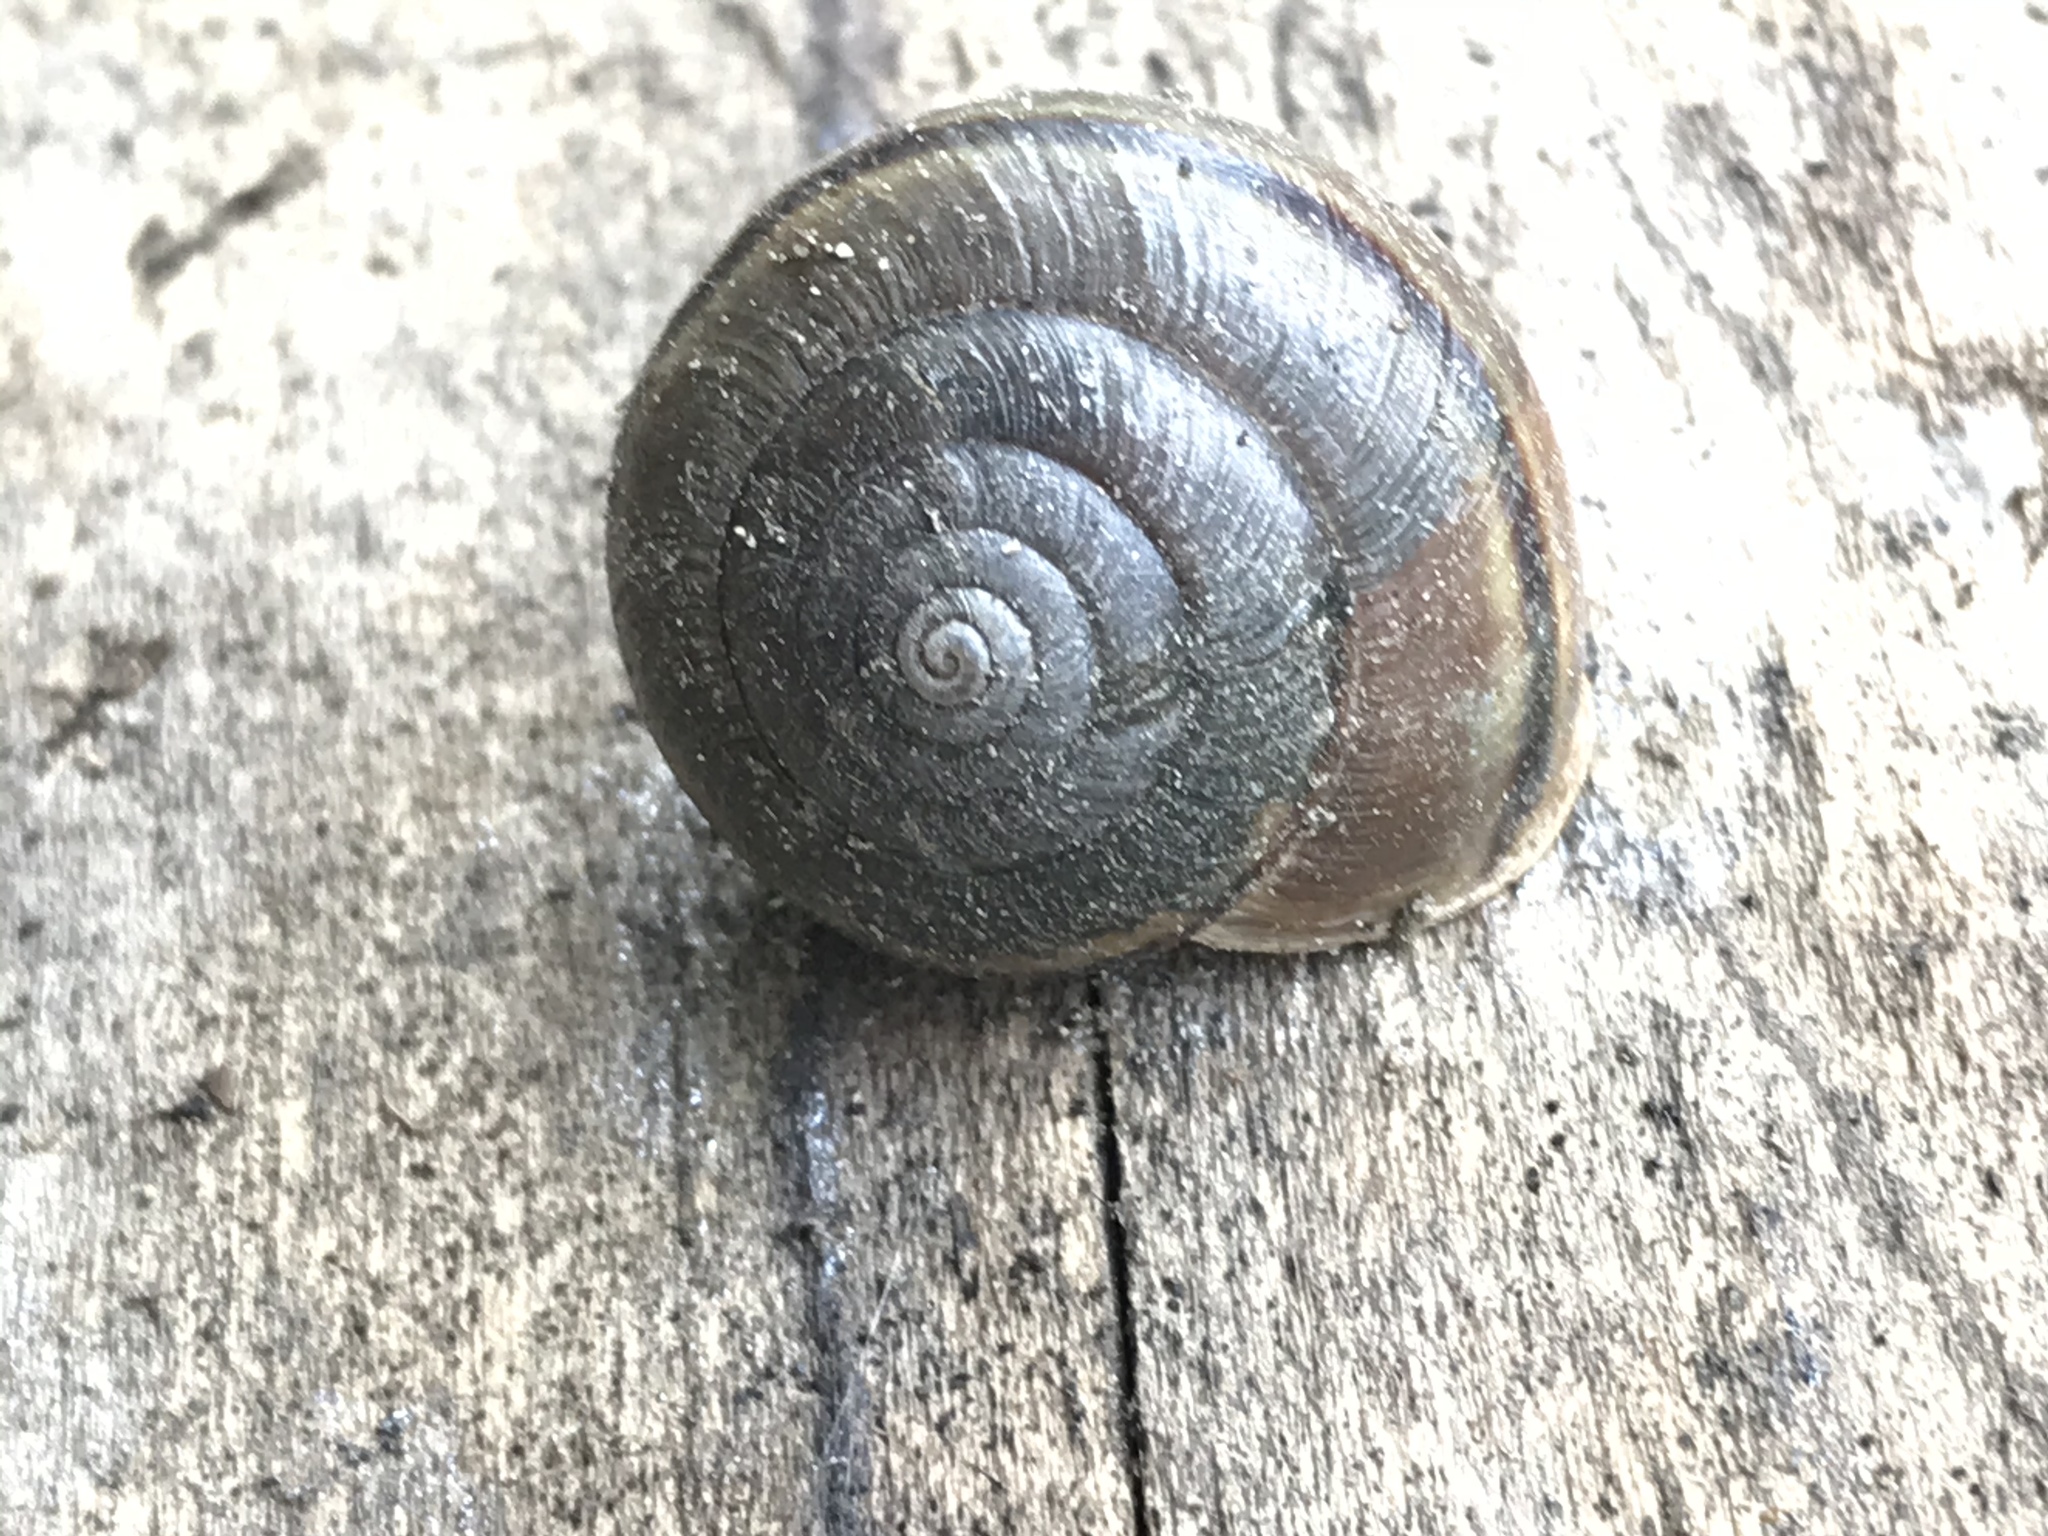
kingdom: Animalia
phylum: Mollusca
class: Gastropoda
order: Stylommatophora
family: Xanthonychidae
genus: Helminthoglypta
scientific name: Helminthoglypta traskii
